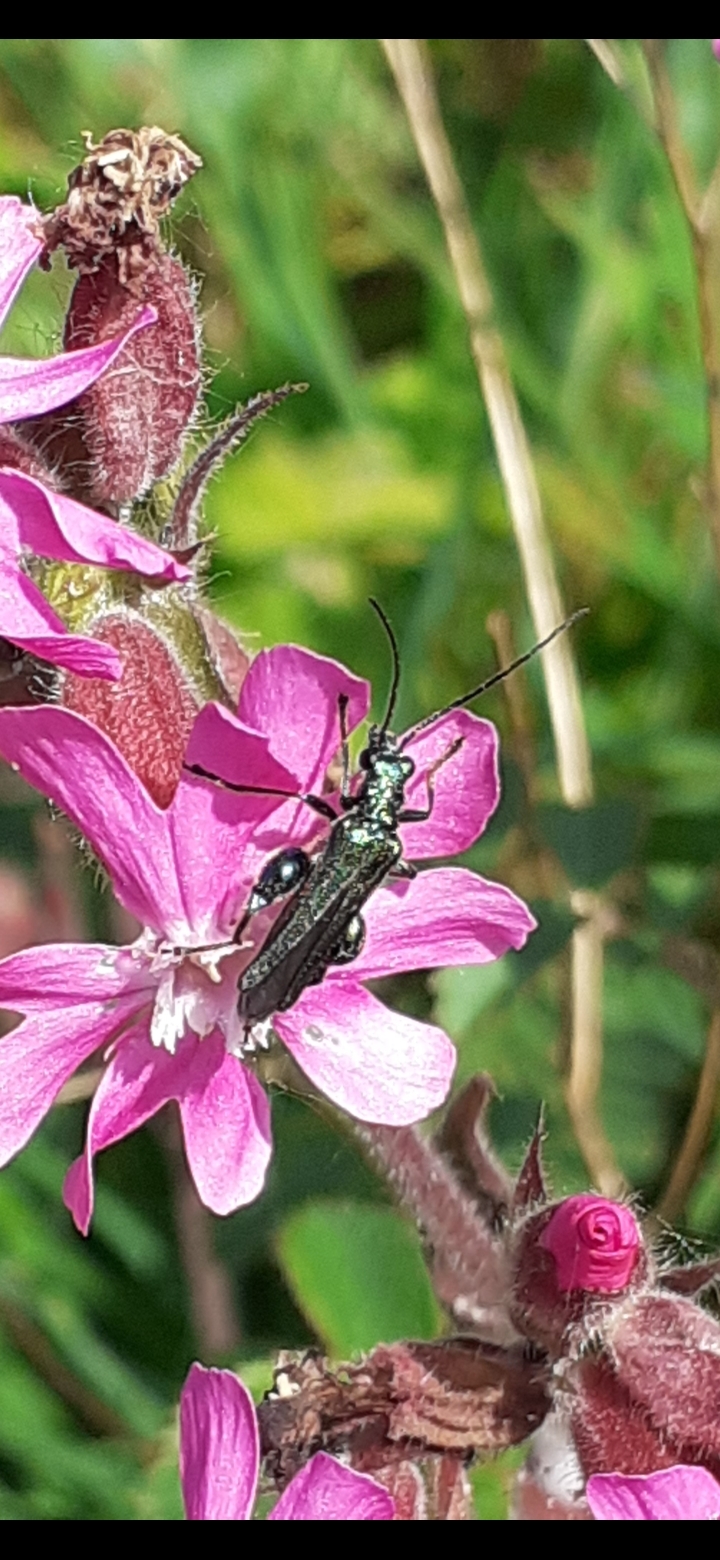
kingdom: Animalia
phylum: Arthropoda
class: Insecta
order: Coleoptera
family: Oedemeridae
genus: Oedemera
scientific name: Oedemera nobilis
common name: Swollen-thighed beetle
